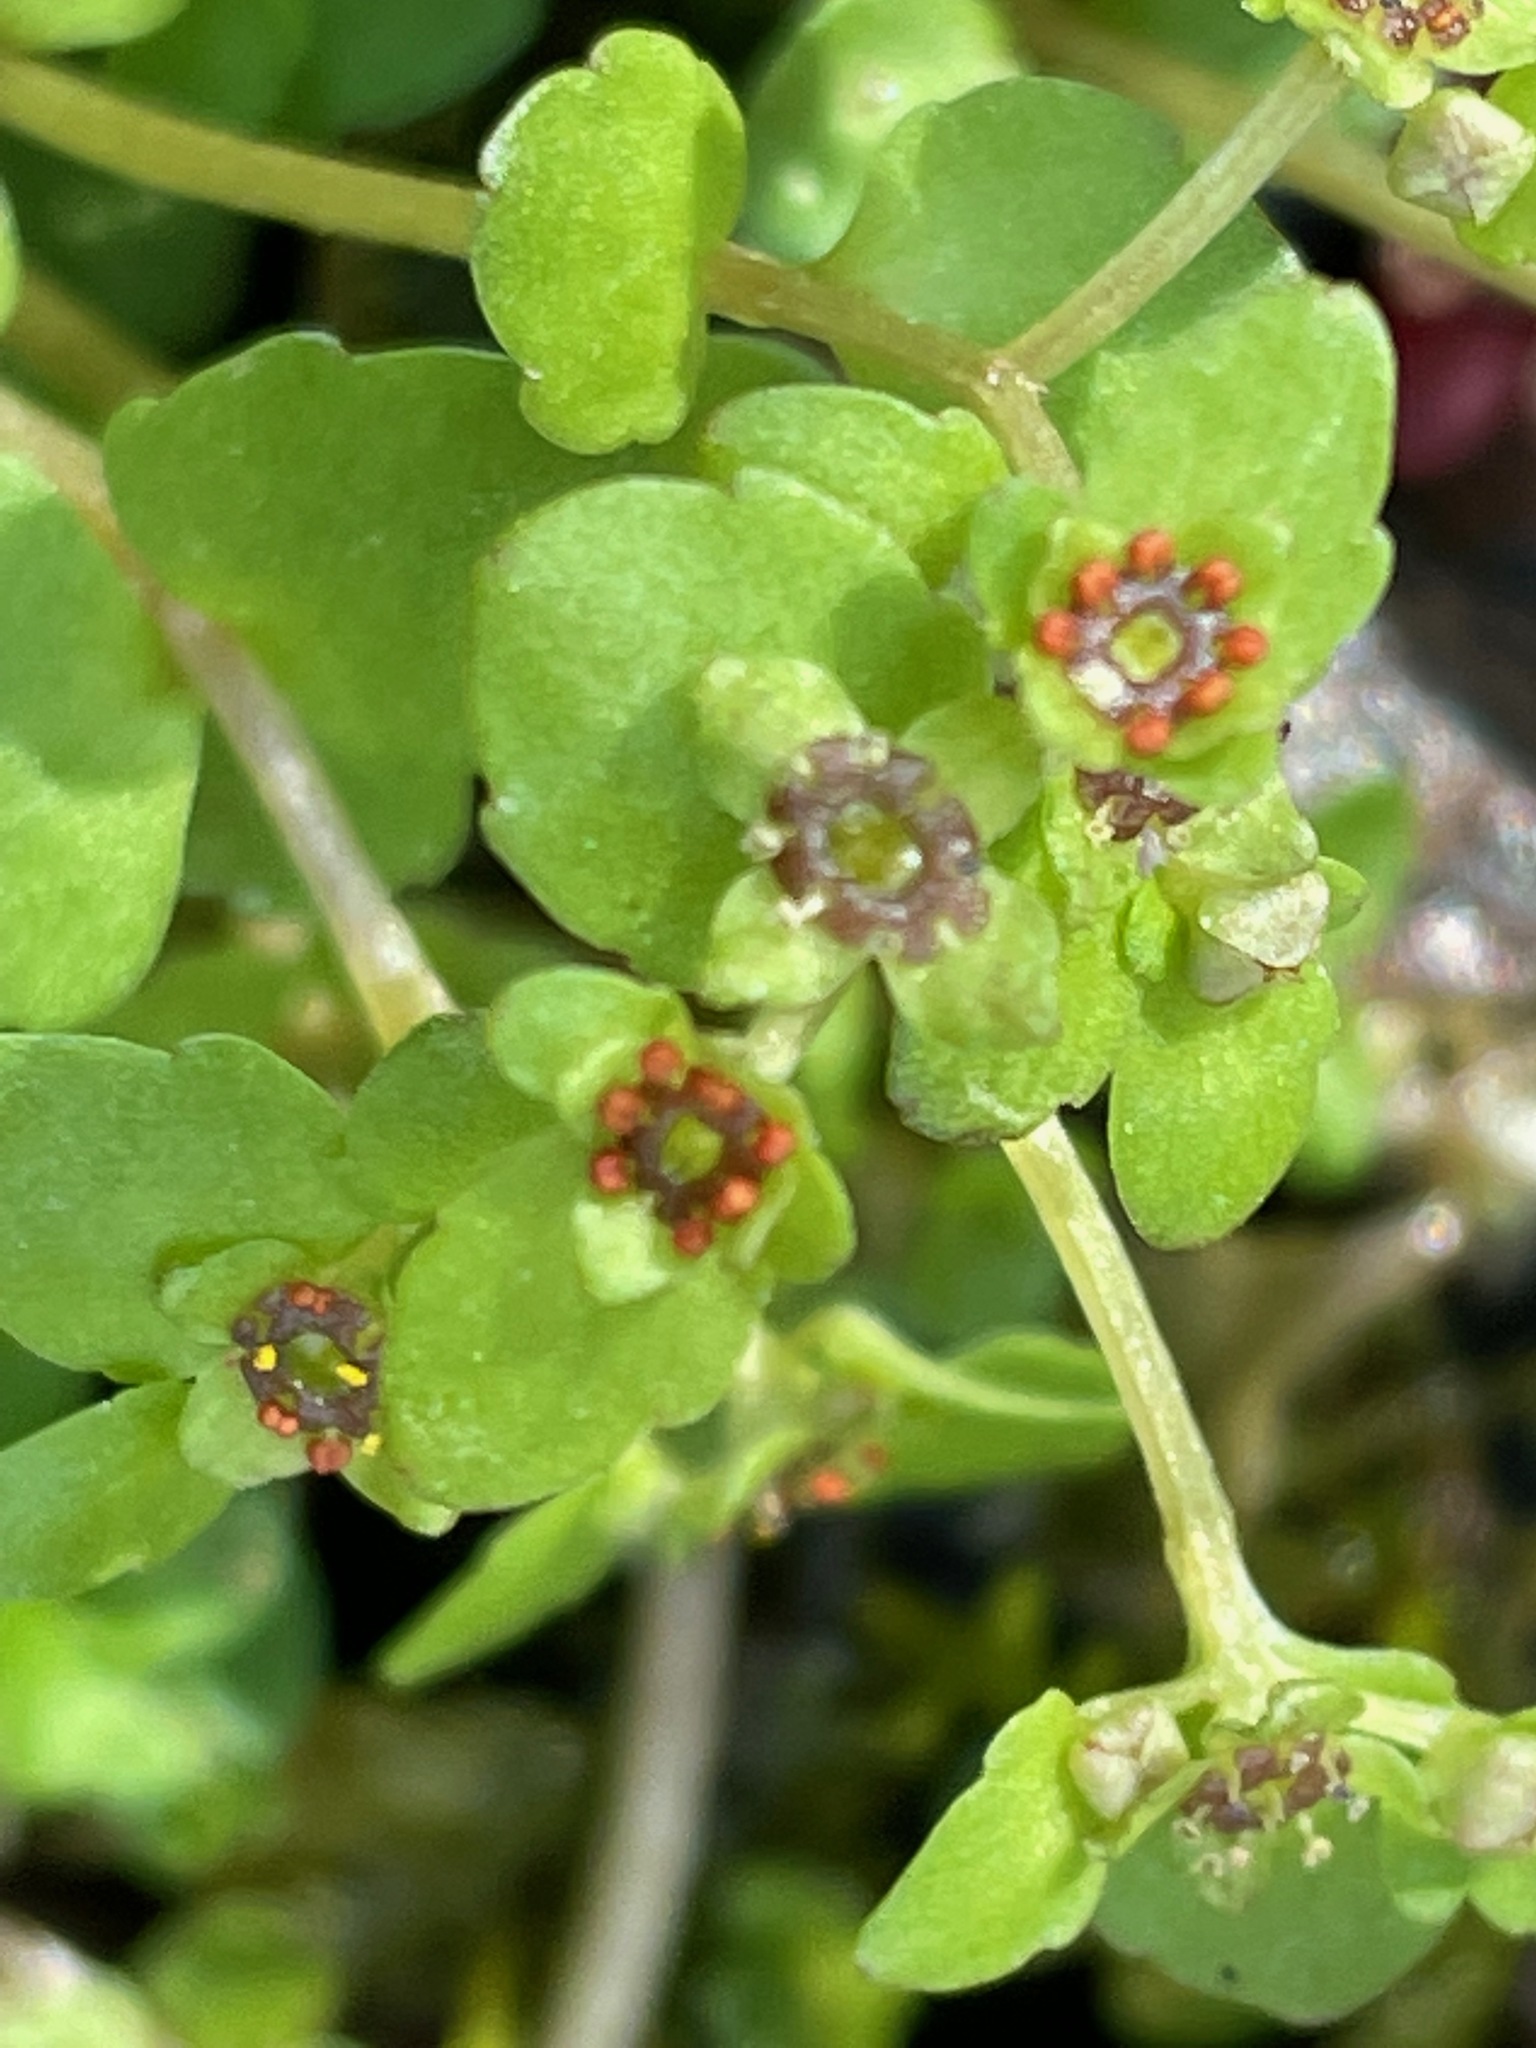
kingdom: Plantae
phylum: Tracheophyta
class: Magnoliopsida
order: Saxifragales
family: Saxifragaceae
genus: Chrysosplenium
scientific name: Chrysosplenium americanum
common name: American golden-saxifrage
